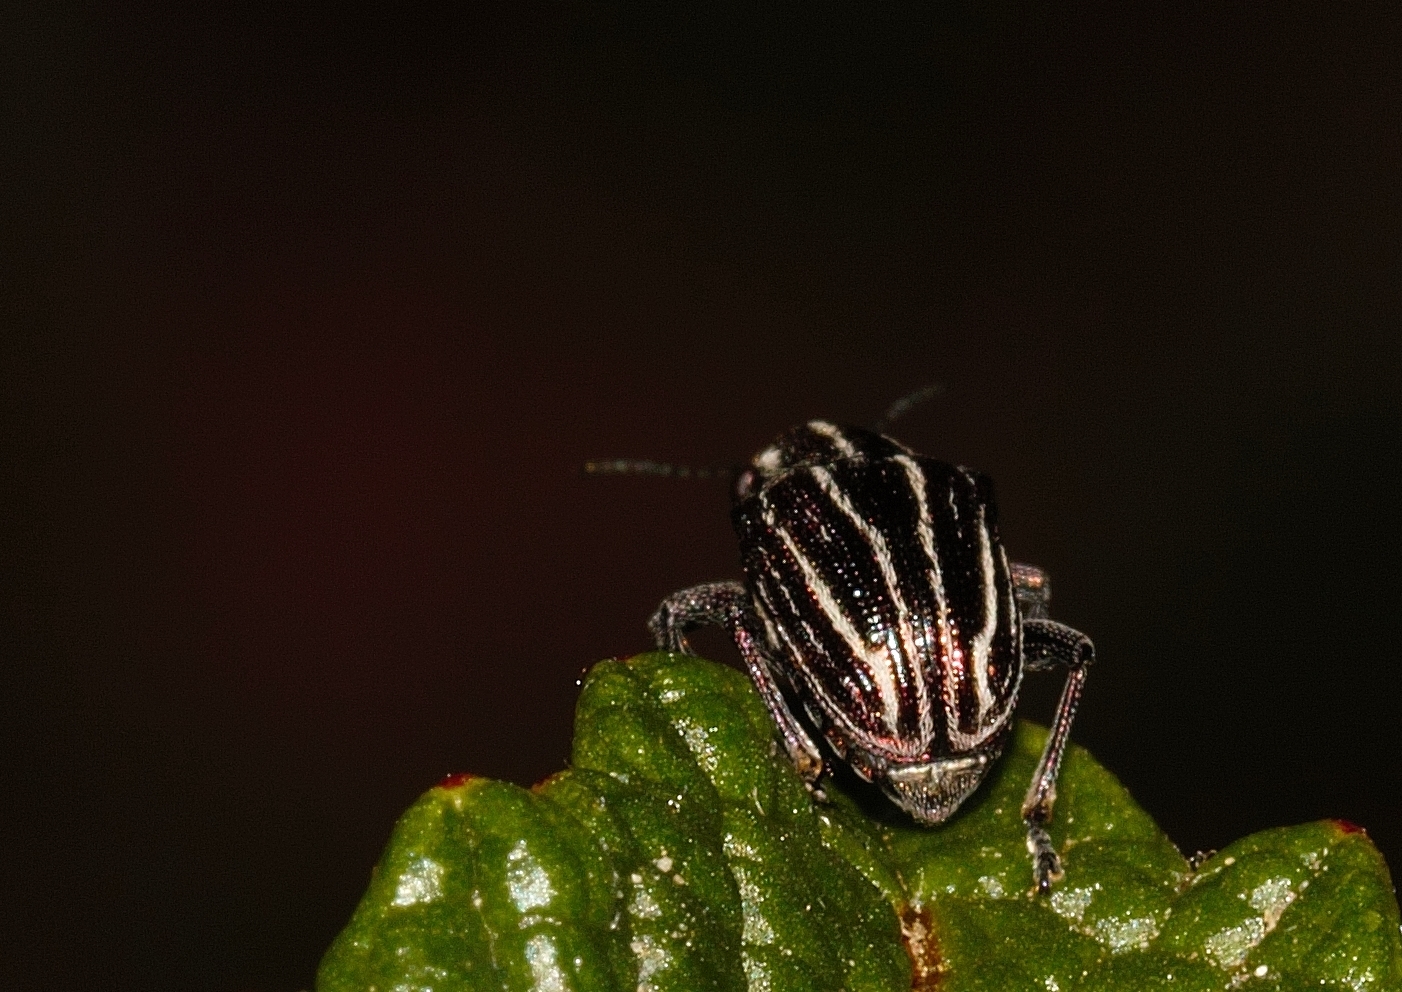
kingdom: Animalia
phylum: Arthropoda
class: Insecta
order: Coleoptera
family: Chrysomelidae
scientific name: Chrysomelidae
